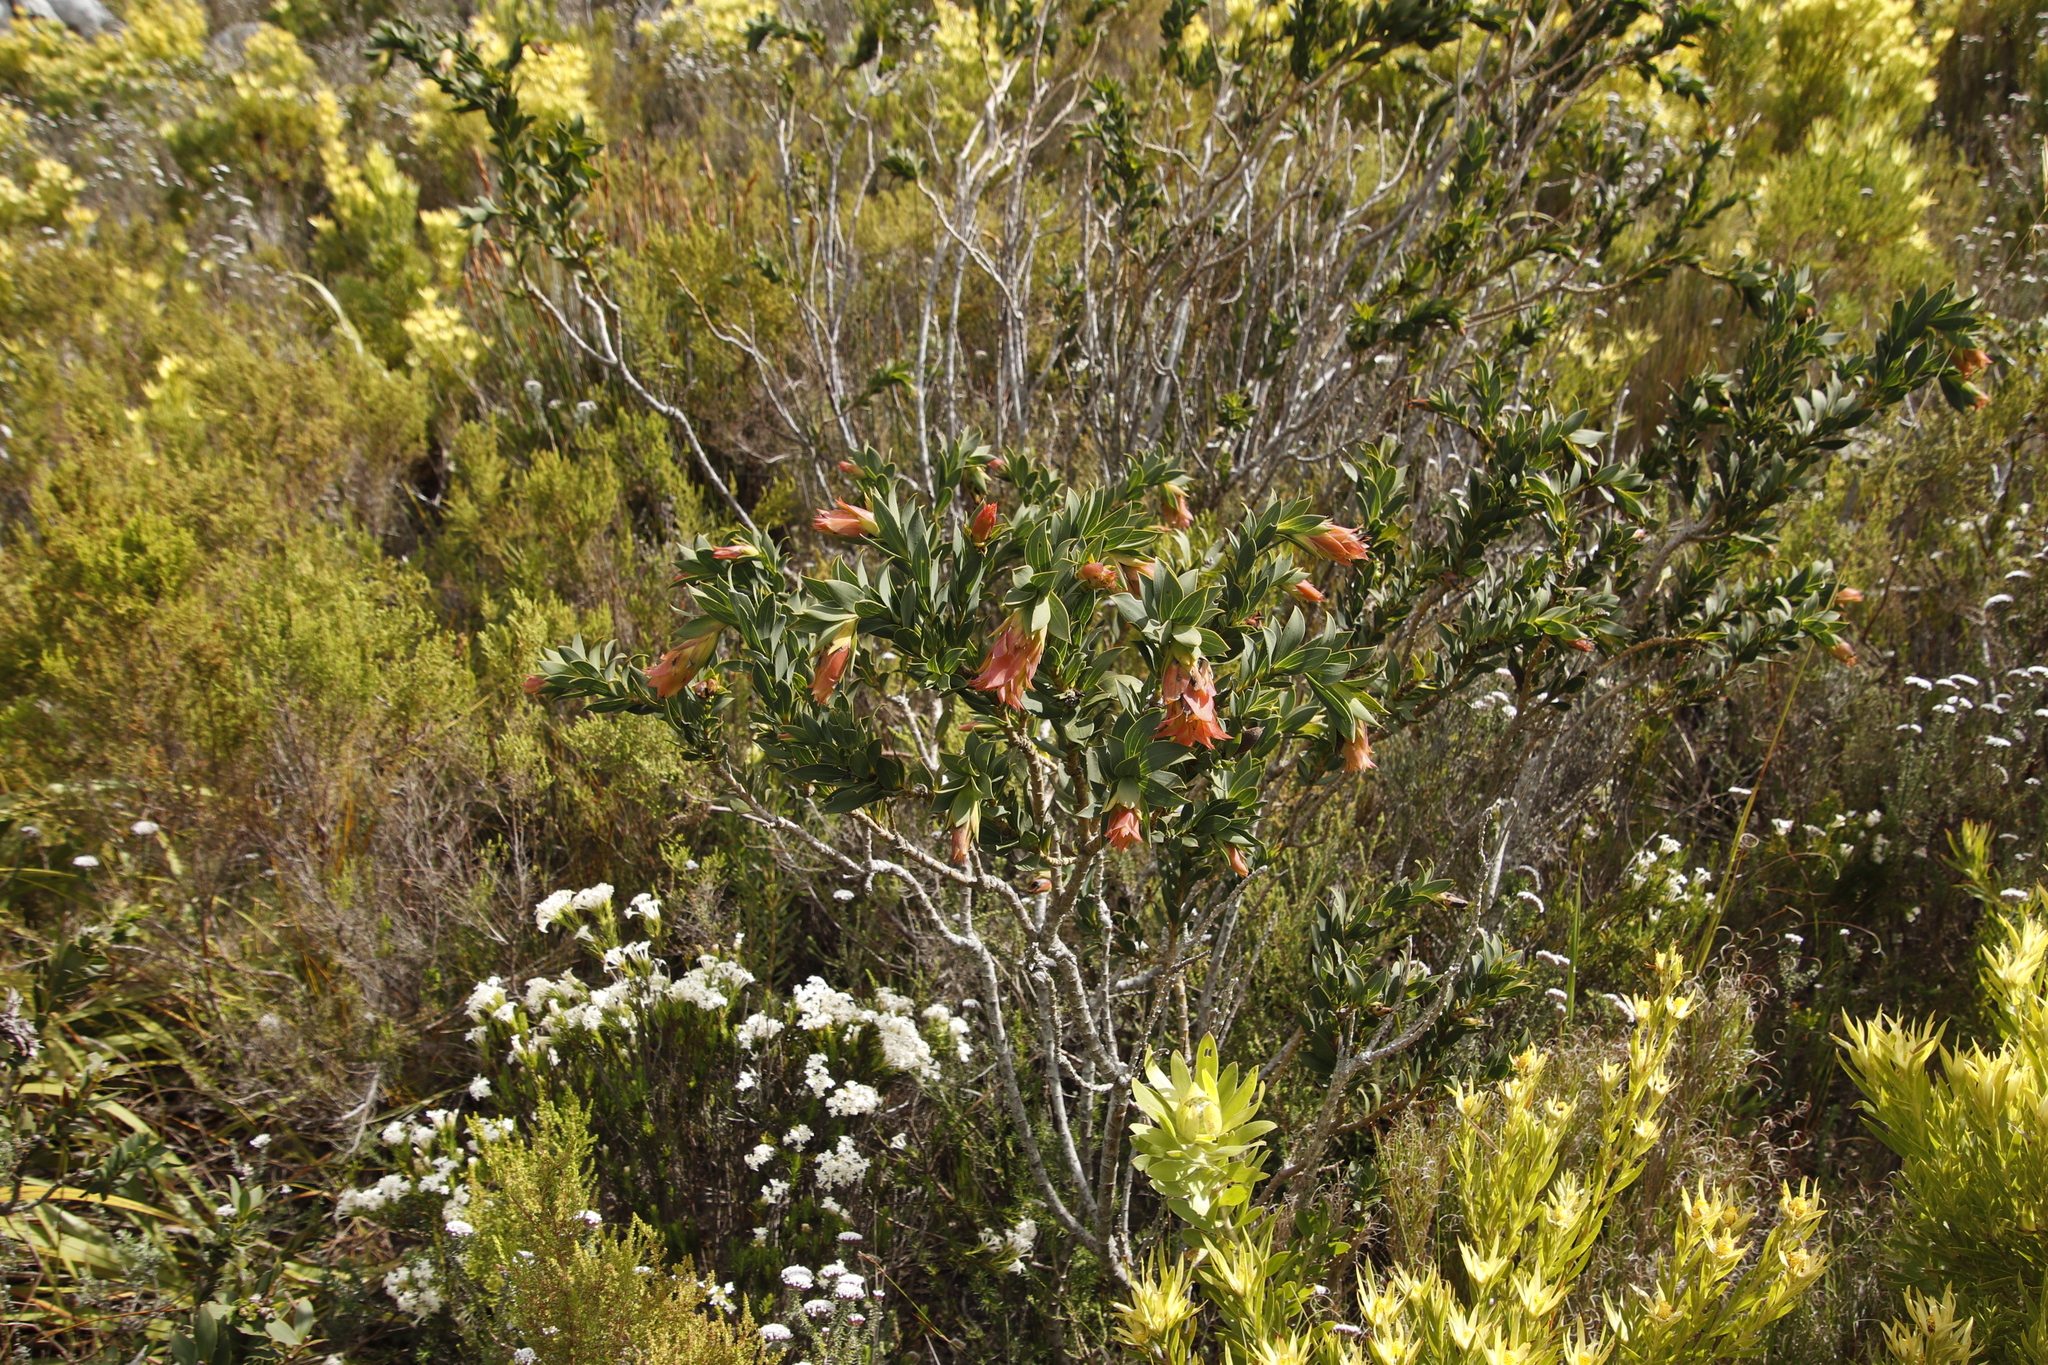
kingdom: Plantae
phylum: Tracheophyta
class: Magnoliopsida
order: Fabales
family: Fabaceae
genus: Liparia
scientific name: Liparia splendens
